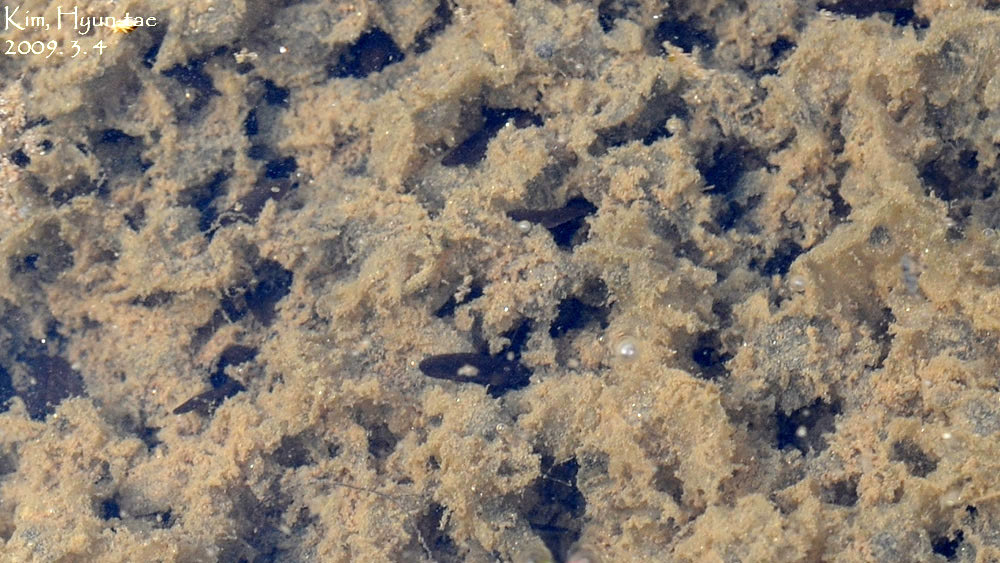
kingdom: Animalia
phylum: Chordata
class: Amphibia
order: Anura
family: Ranidae
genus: Rana
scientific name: Rana uenoi
